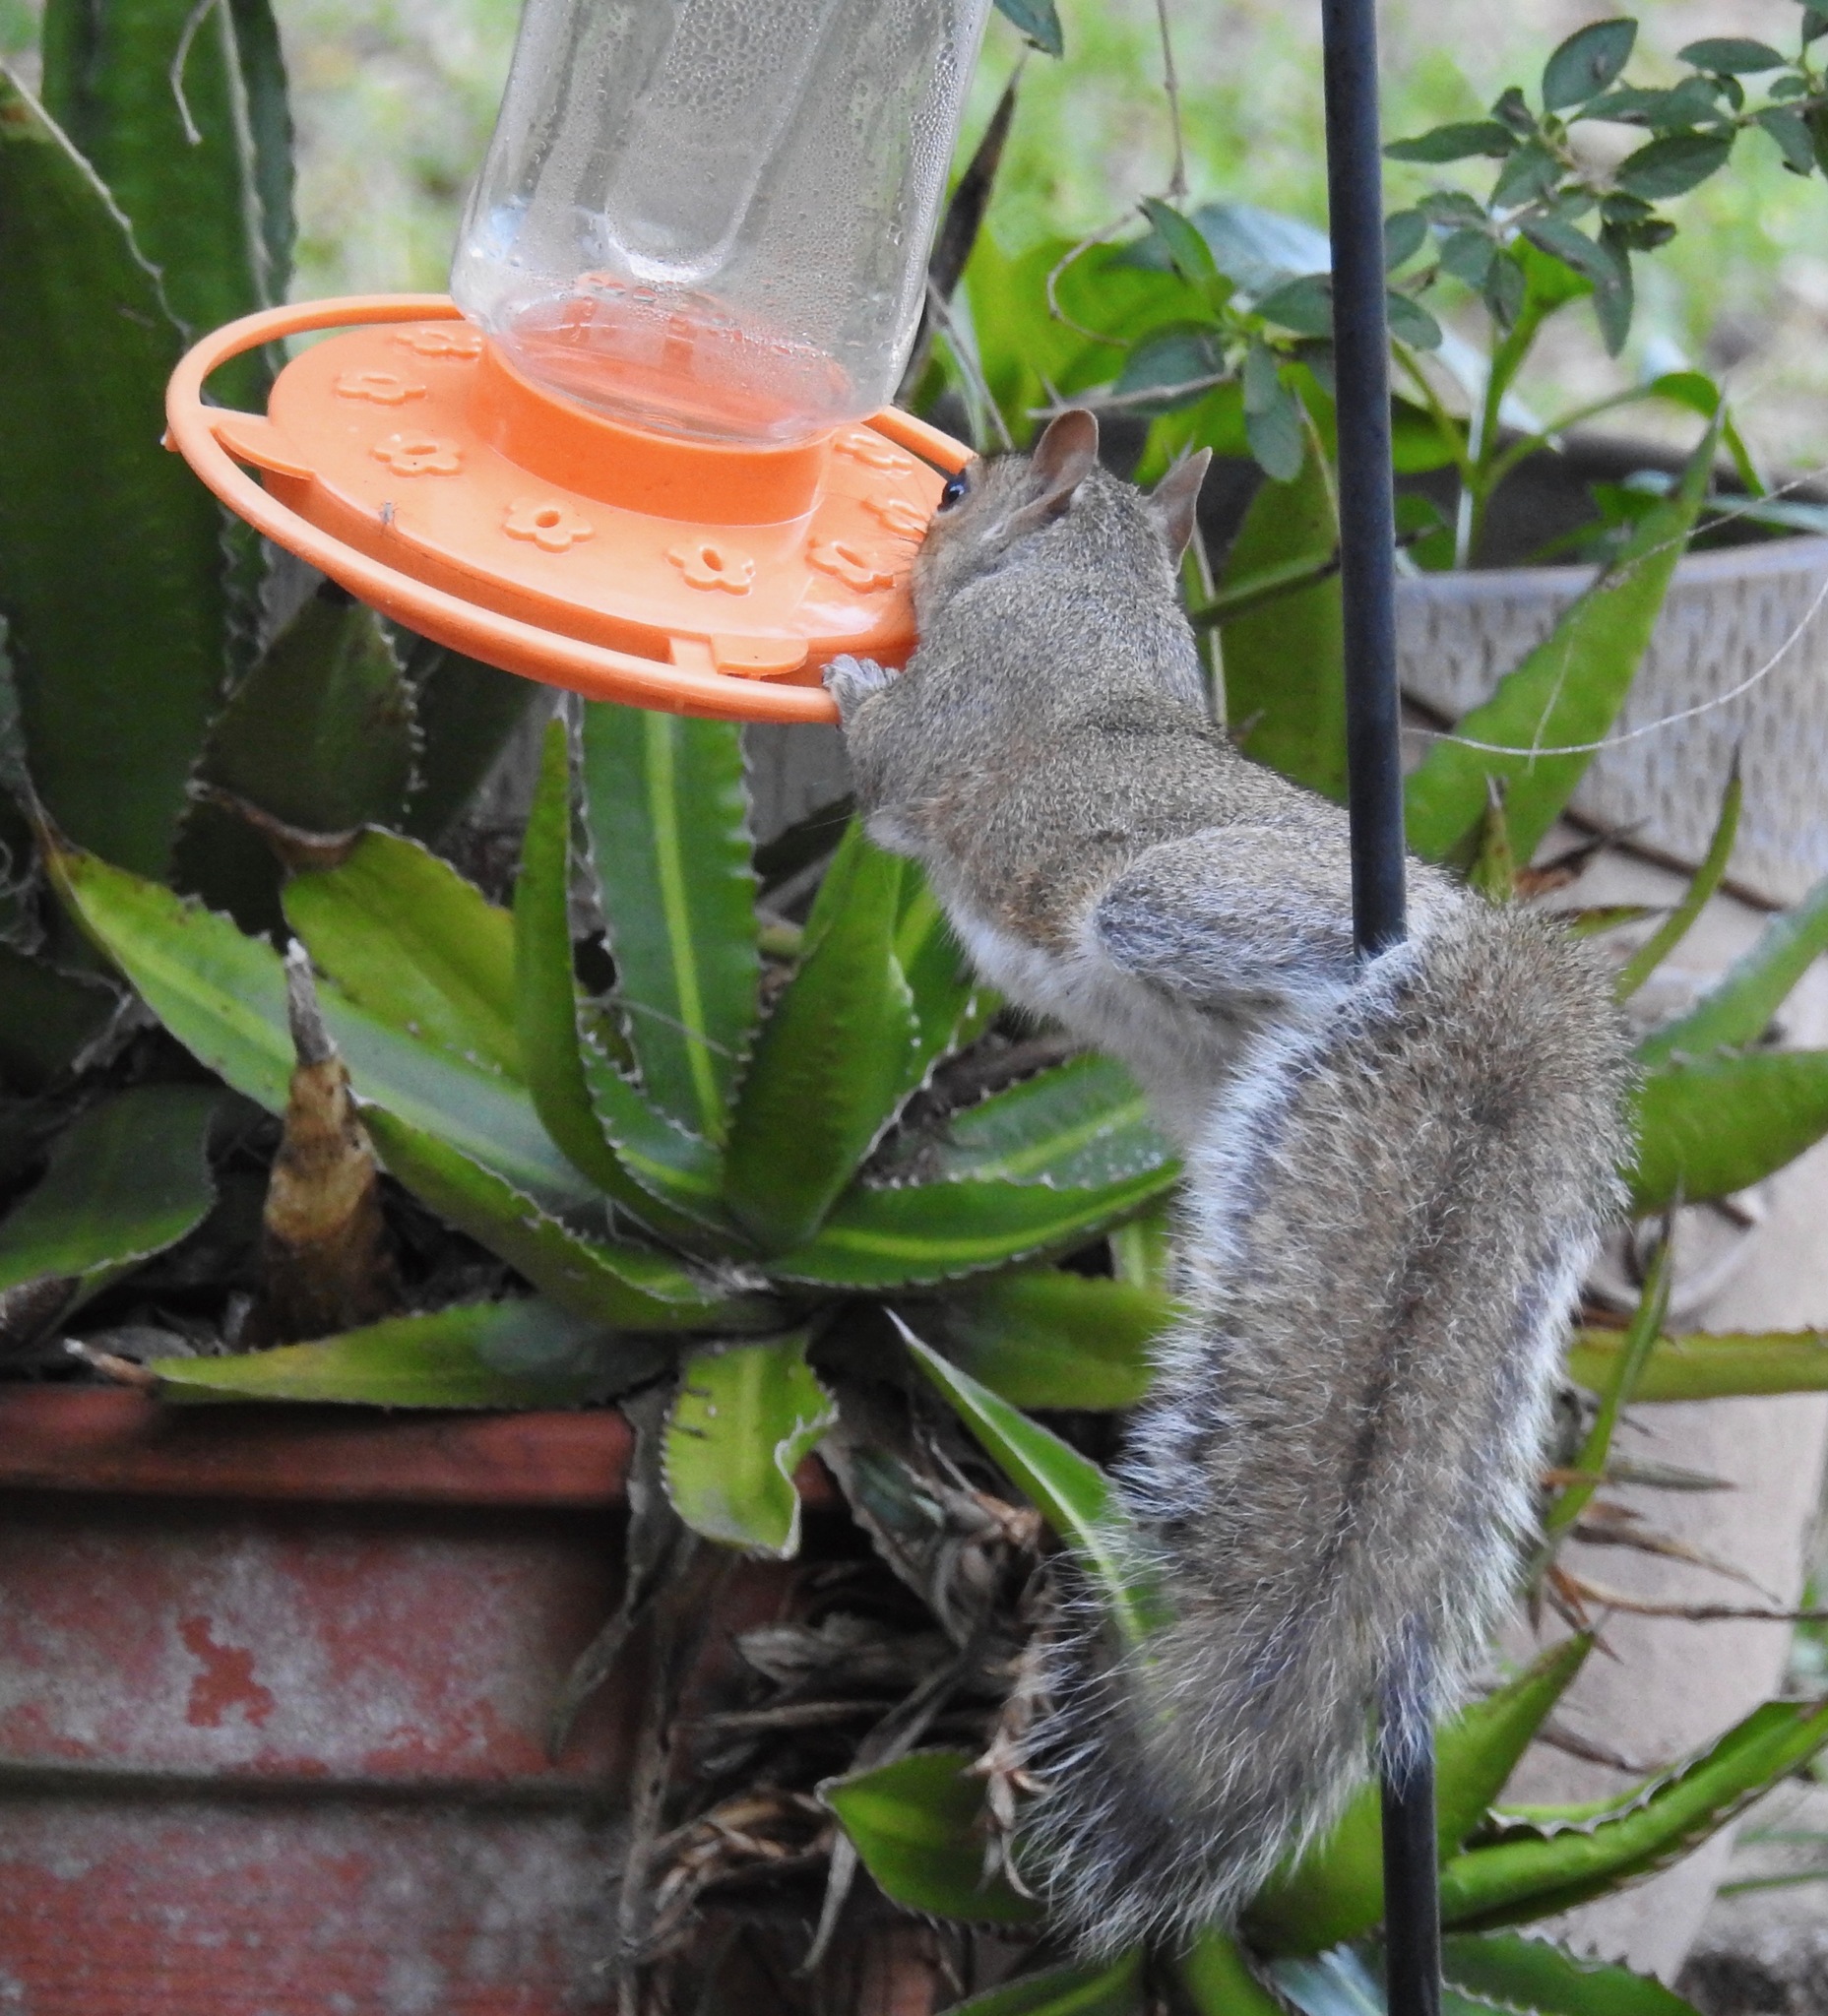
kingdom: Animalia
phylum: Chordata
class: Mammalia
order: Rodentia
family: Sciuridae
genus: Sciurus
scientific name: Sciurus carolinensis
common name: Eastern gray squirrel
